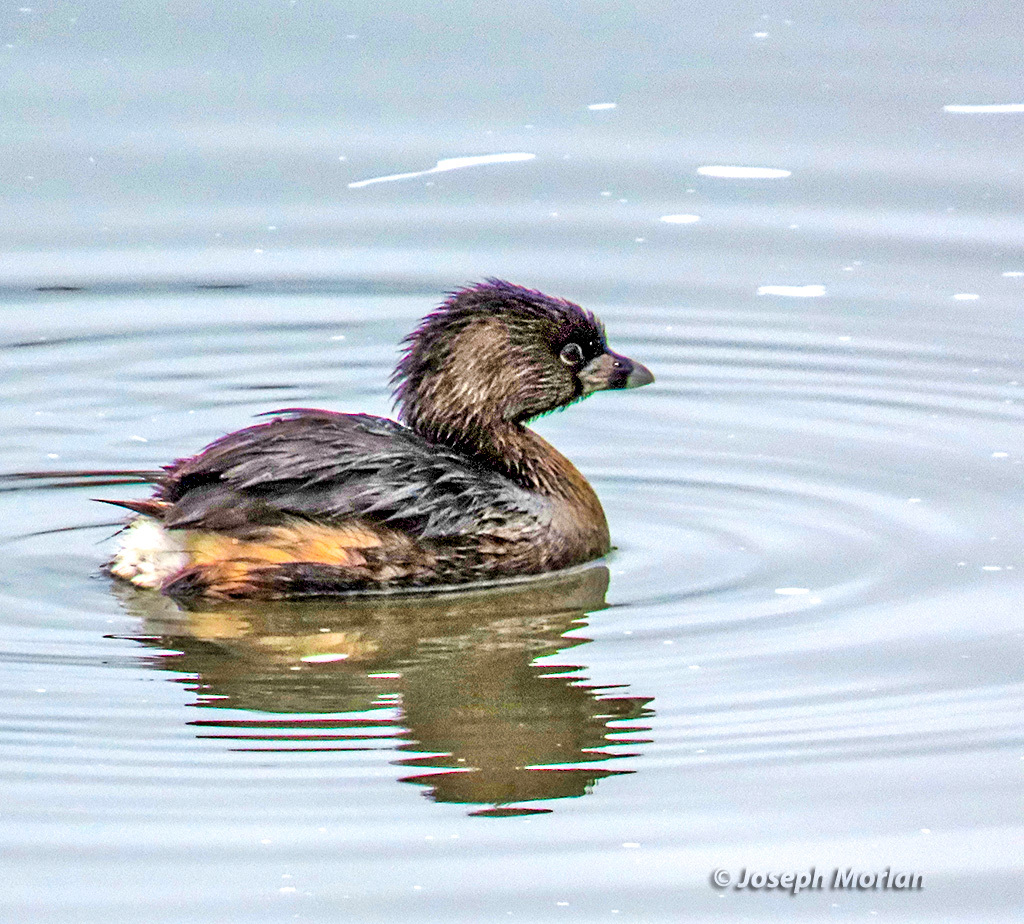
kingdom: Animalia
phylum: Chordata
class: Aves
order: Podicipediformes
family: Podicipedidae
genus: Podilymbus
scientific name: Podilymbus podiceps
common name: Pied-billed grebe
